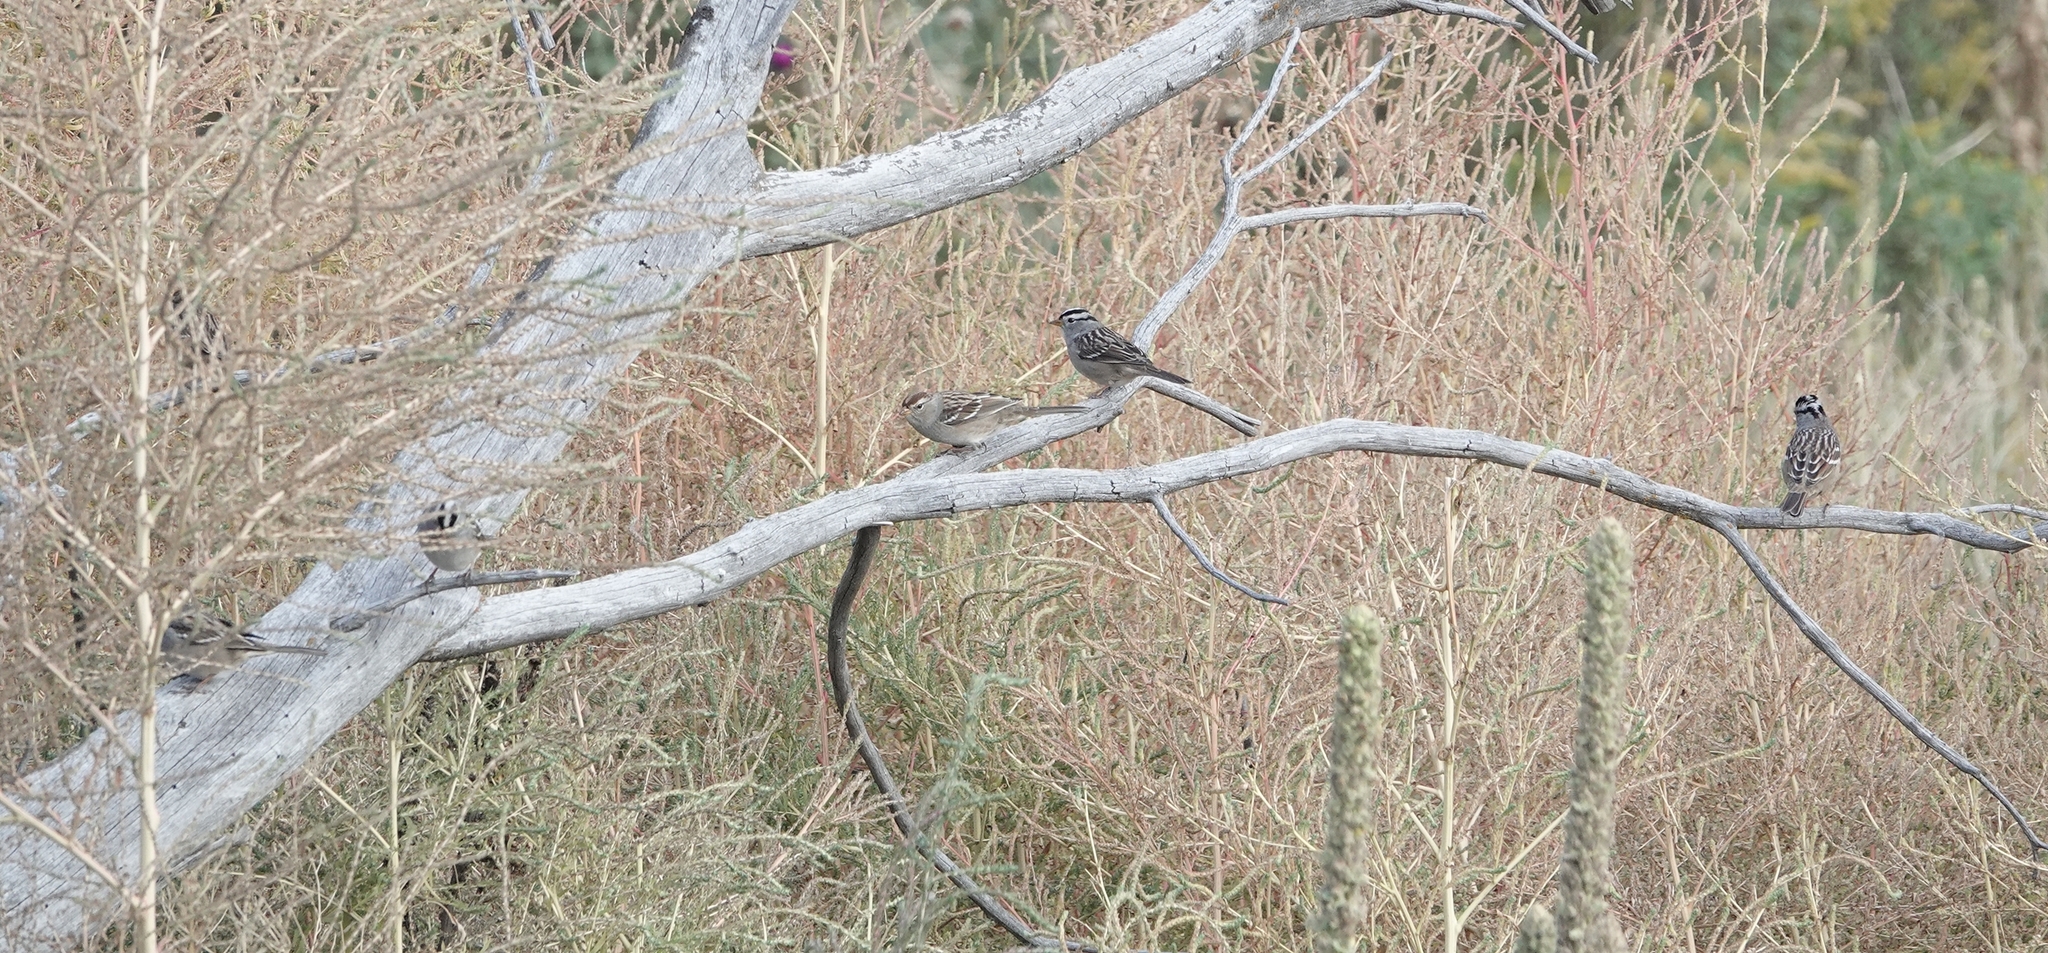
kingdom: Animalia
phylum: Chordata
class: Aves
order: Passeriformes
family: Passerellidae
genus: Zonotrichia
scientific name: Zonotrichia leucophrys
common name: White-crowned sparrow
